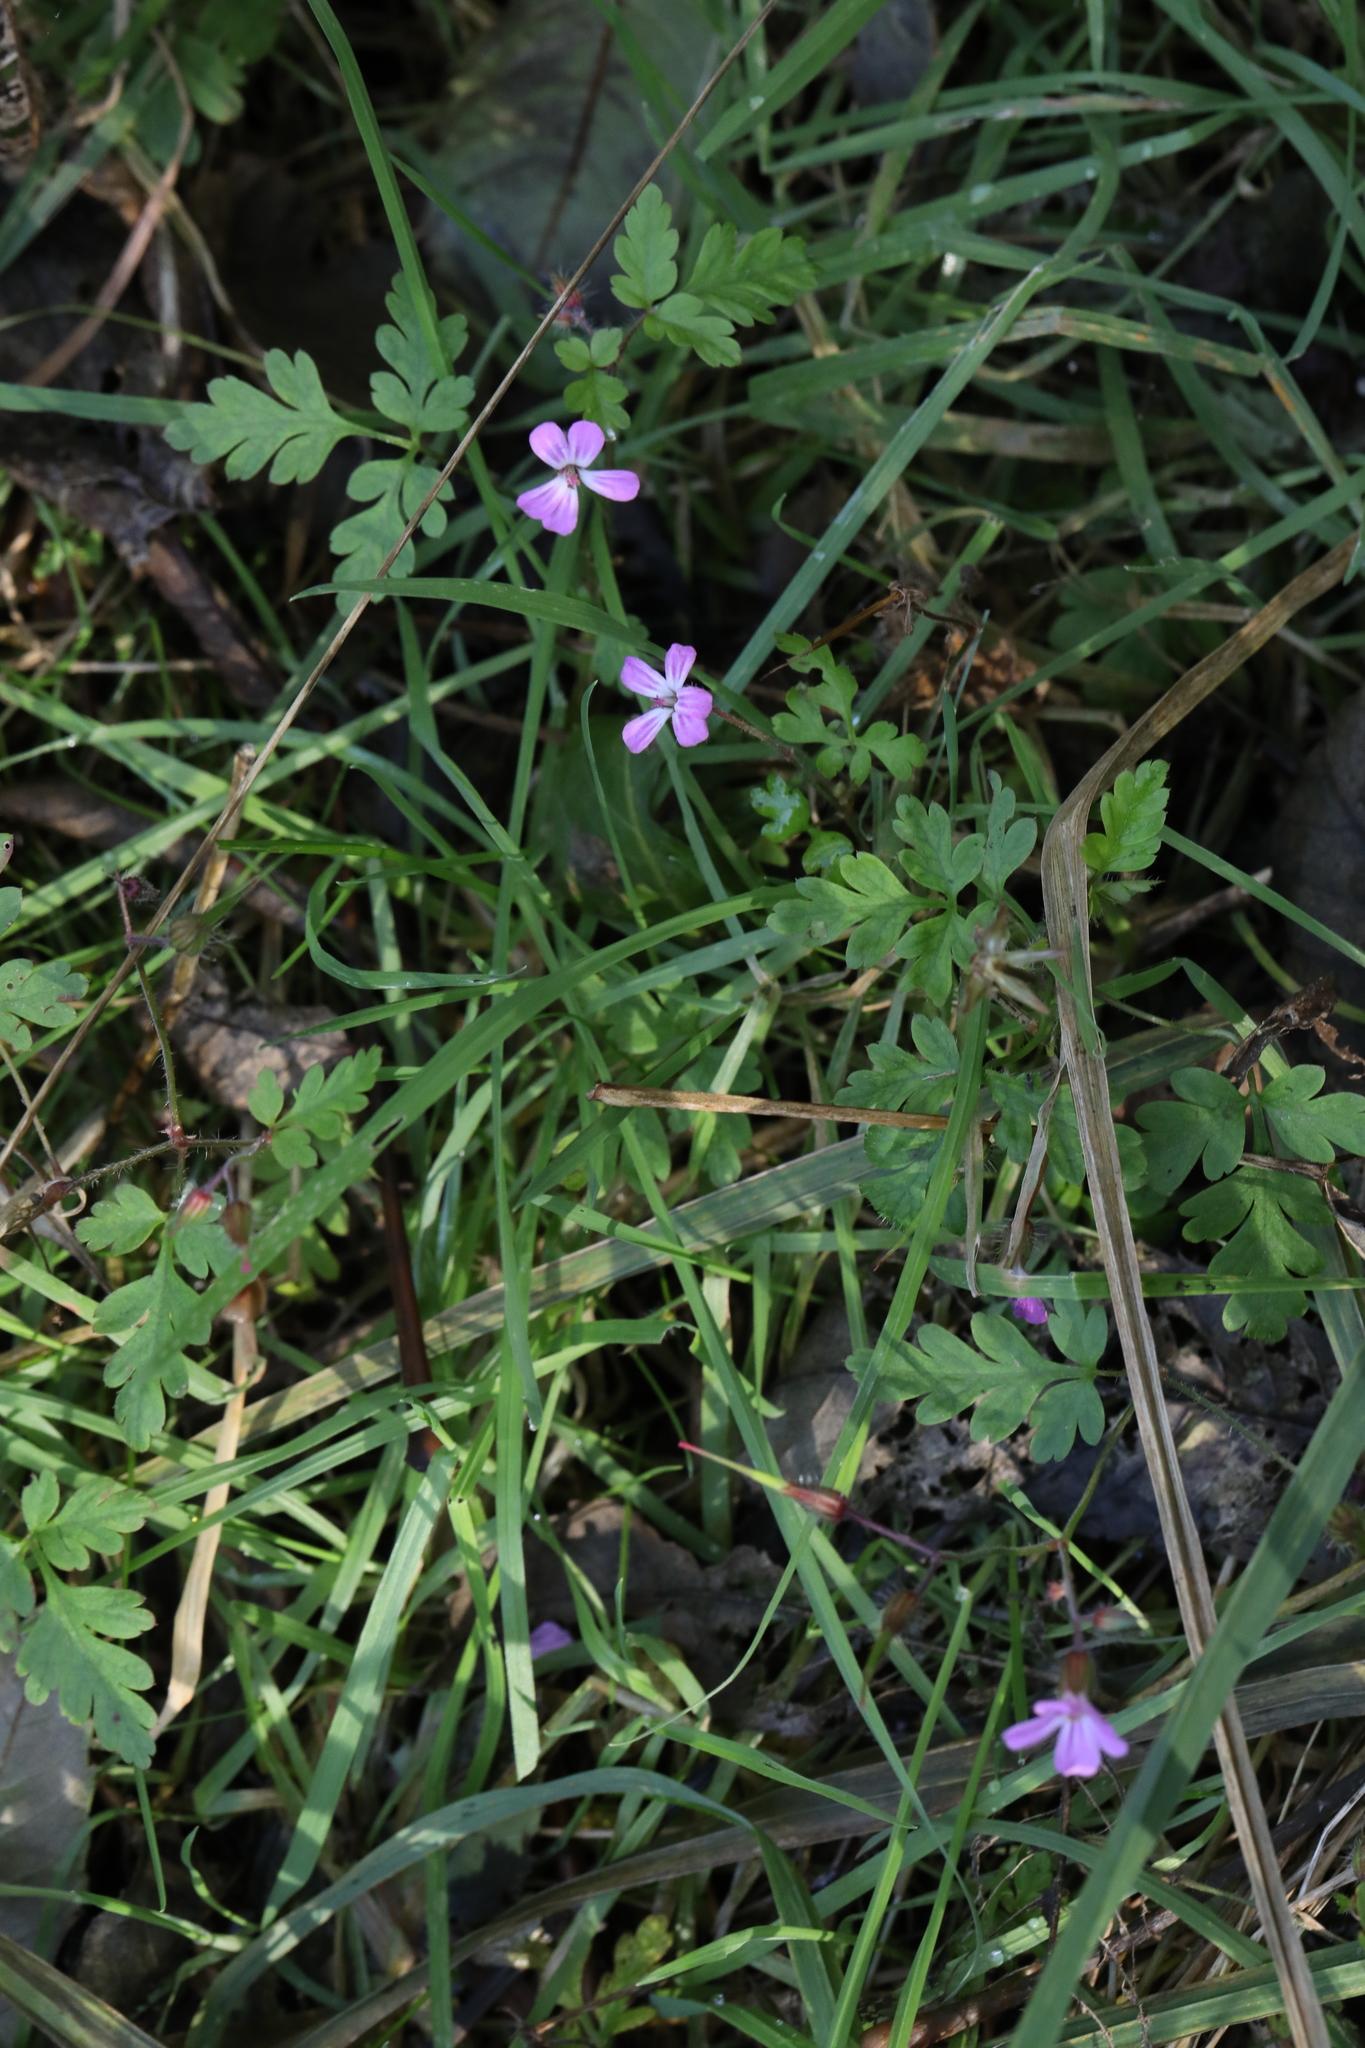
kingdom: Plantae
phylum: Tracheophyta
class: Magnoliopsida
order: Geraniales
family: Geraniaceae
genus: Geranium
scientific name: Geranium robertianum
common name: Herb-robert
